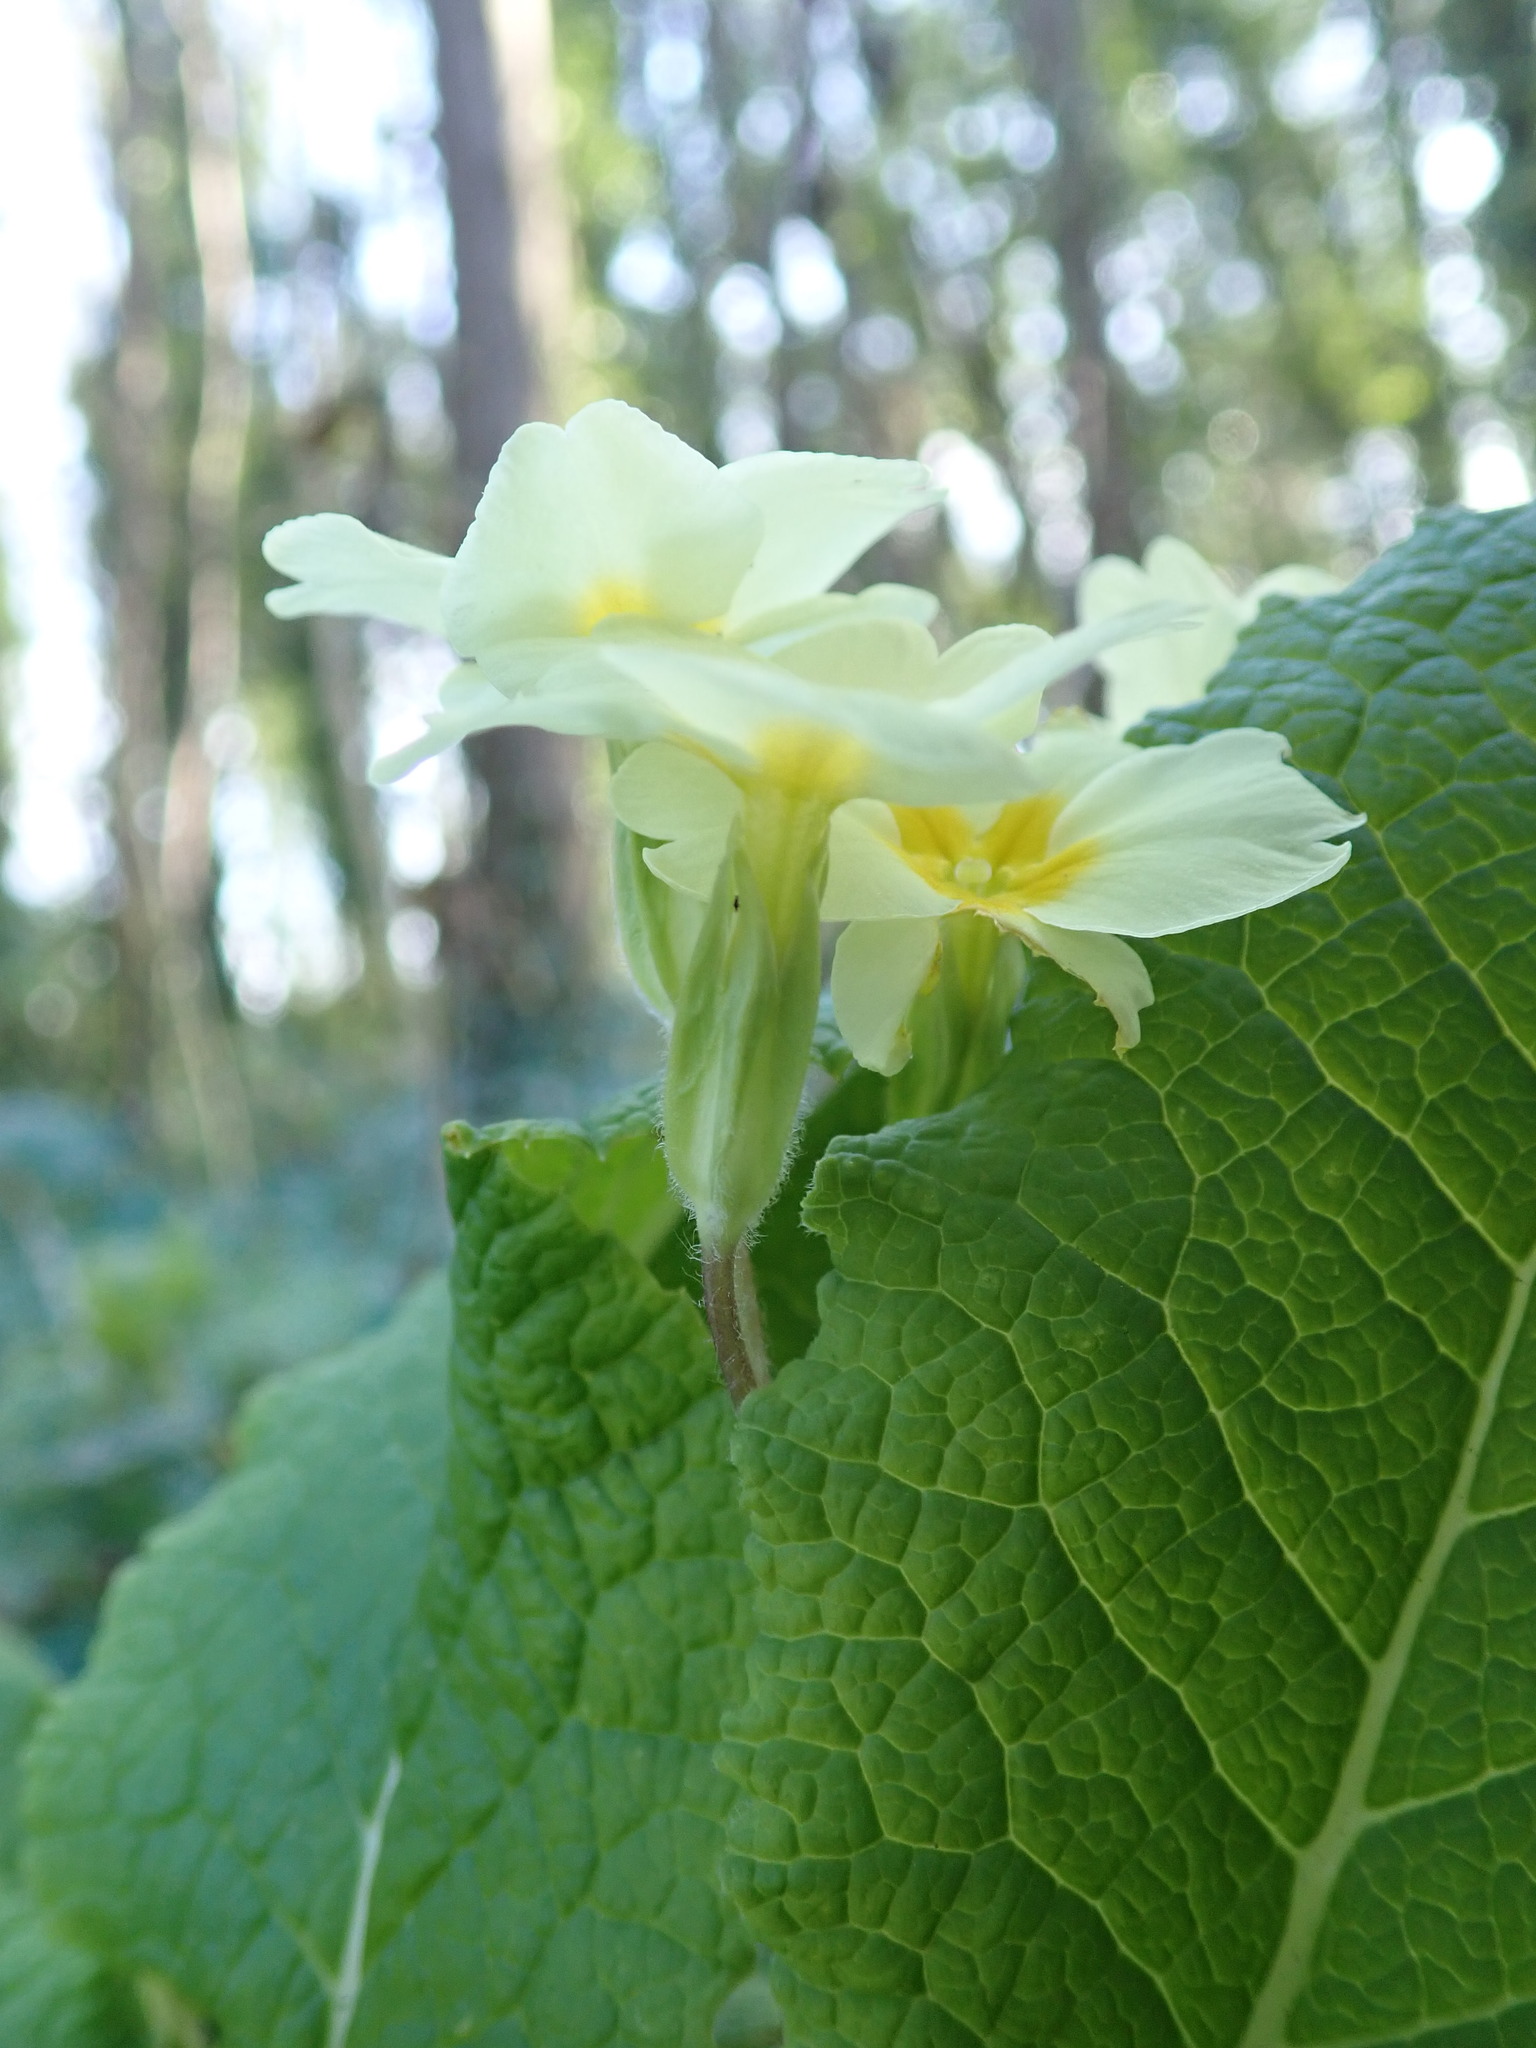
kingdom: Plantae
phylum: Tracheophyta
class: Magnoliopsida
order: Ericales
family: Primulaceae
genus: Primula
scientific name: Primula vulgaris
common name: Primrose
